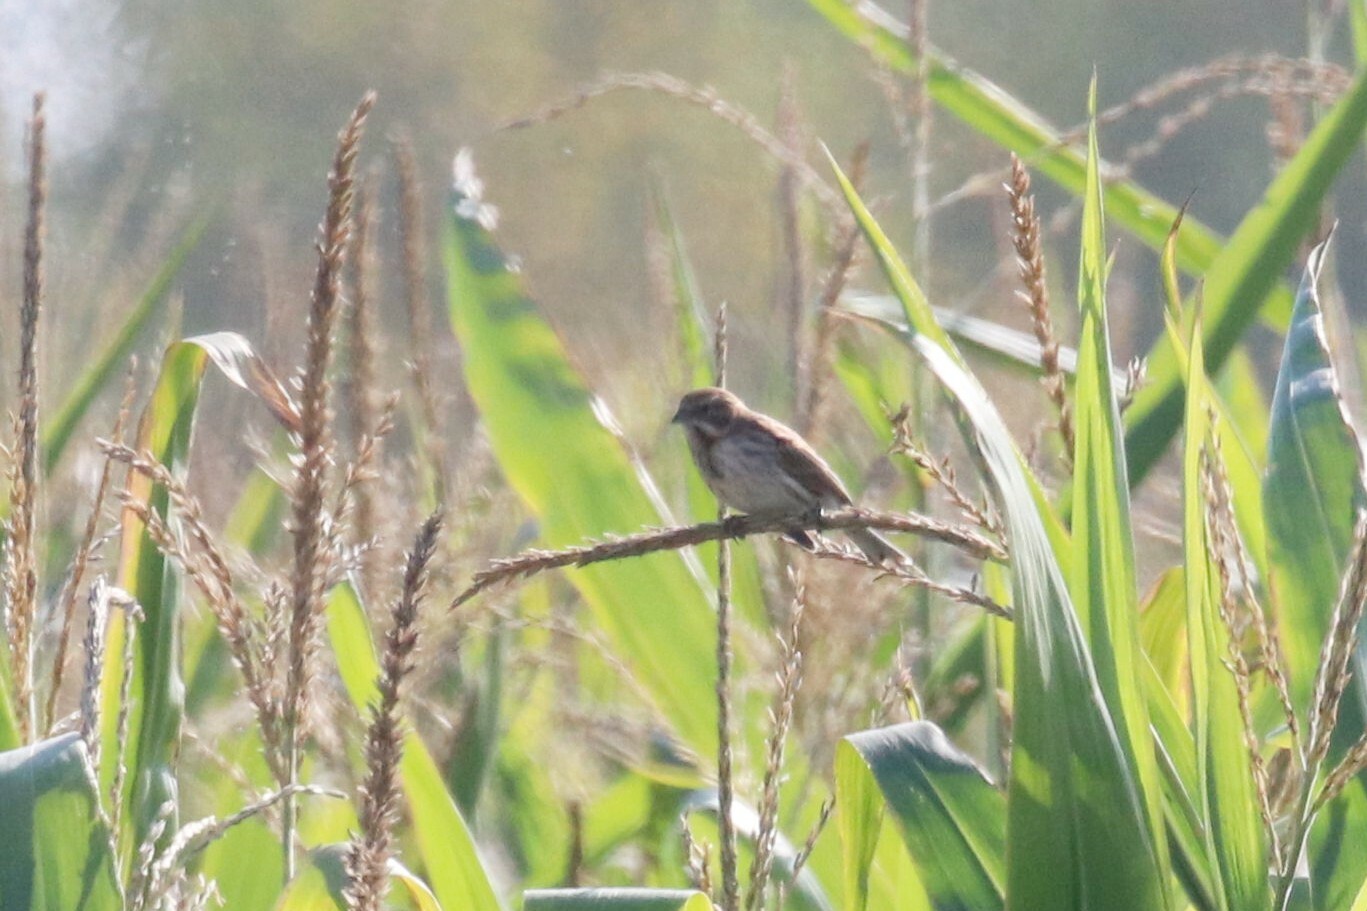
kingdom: Animalia
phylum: Chordata
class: Aves
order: Passeriformes
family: Emberizidae
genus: Emberiza
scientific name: Emberiza schoeniclus
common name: Reed bunting
